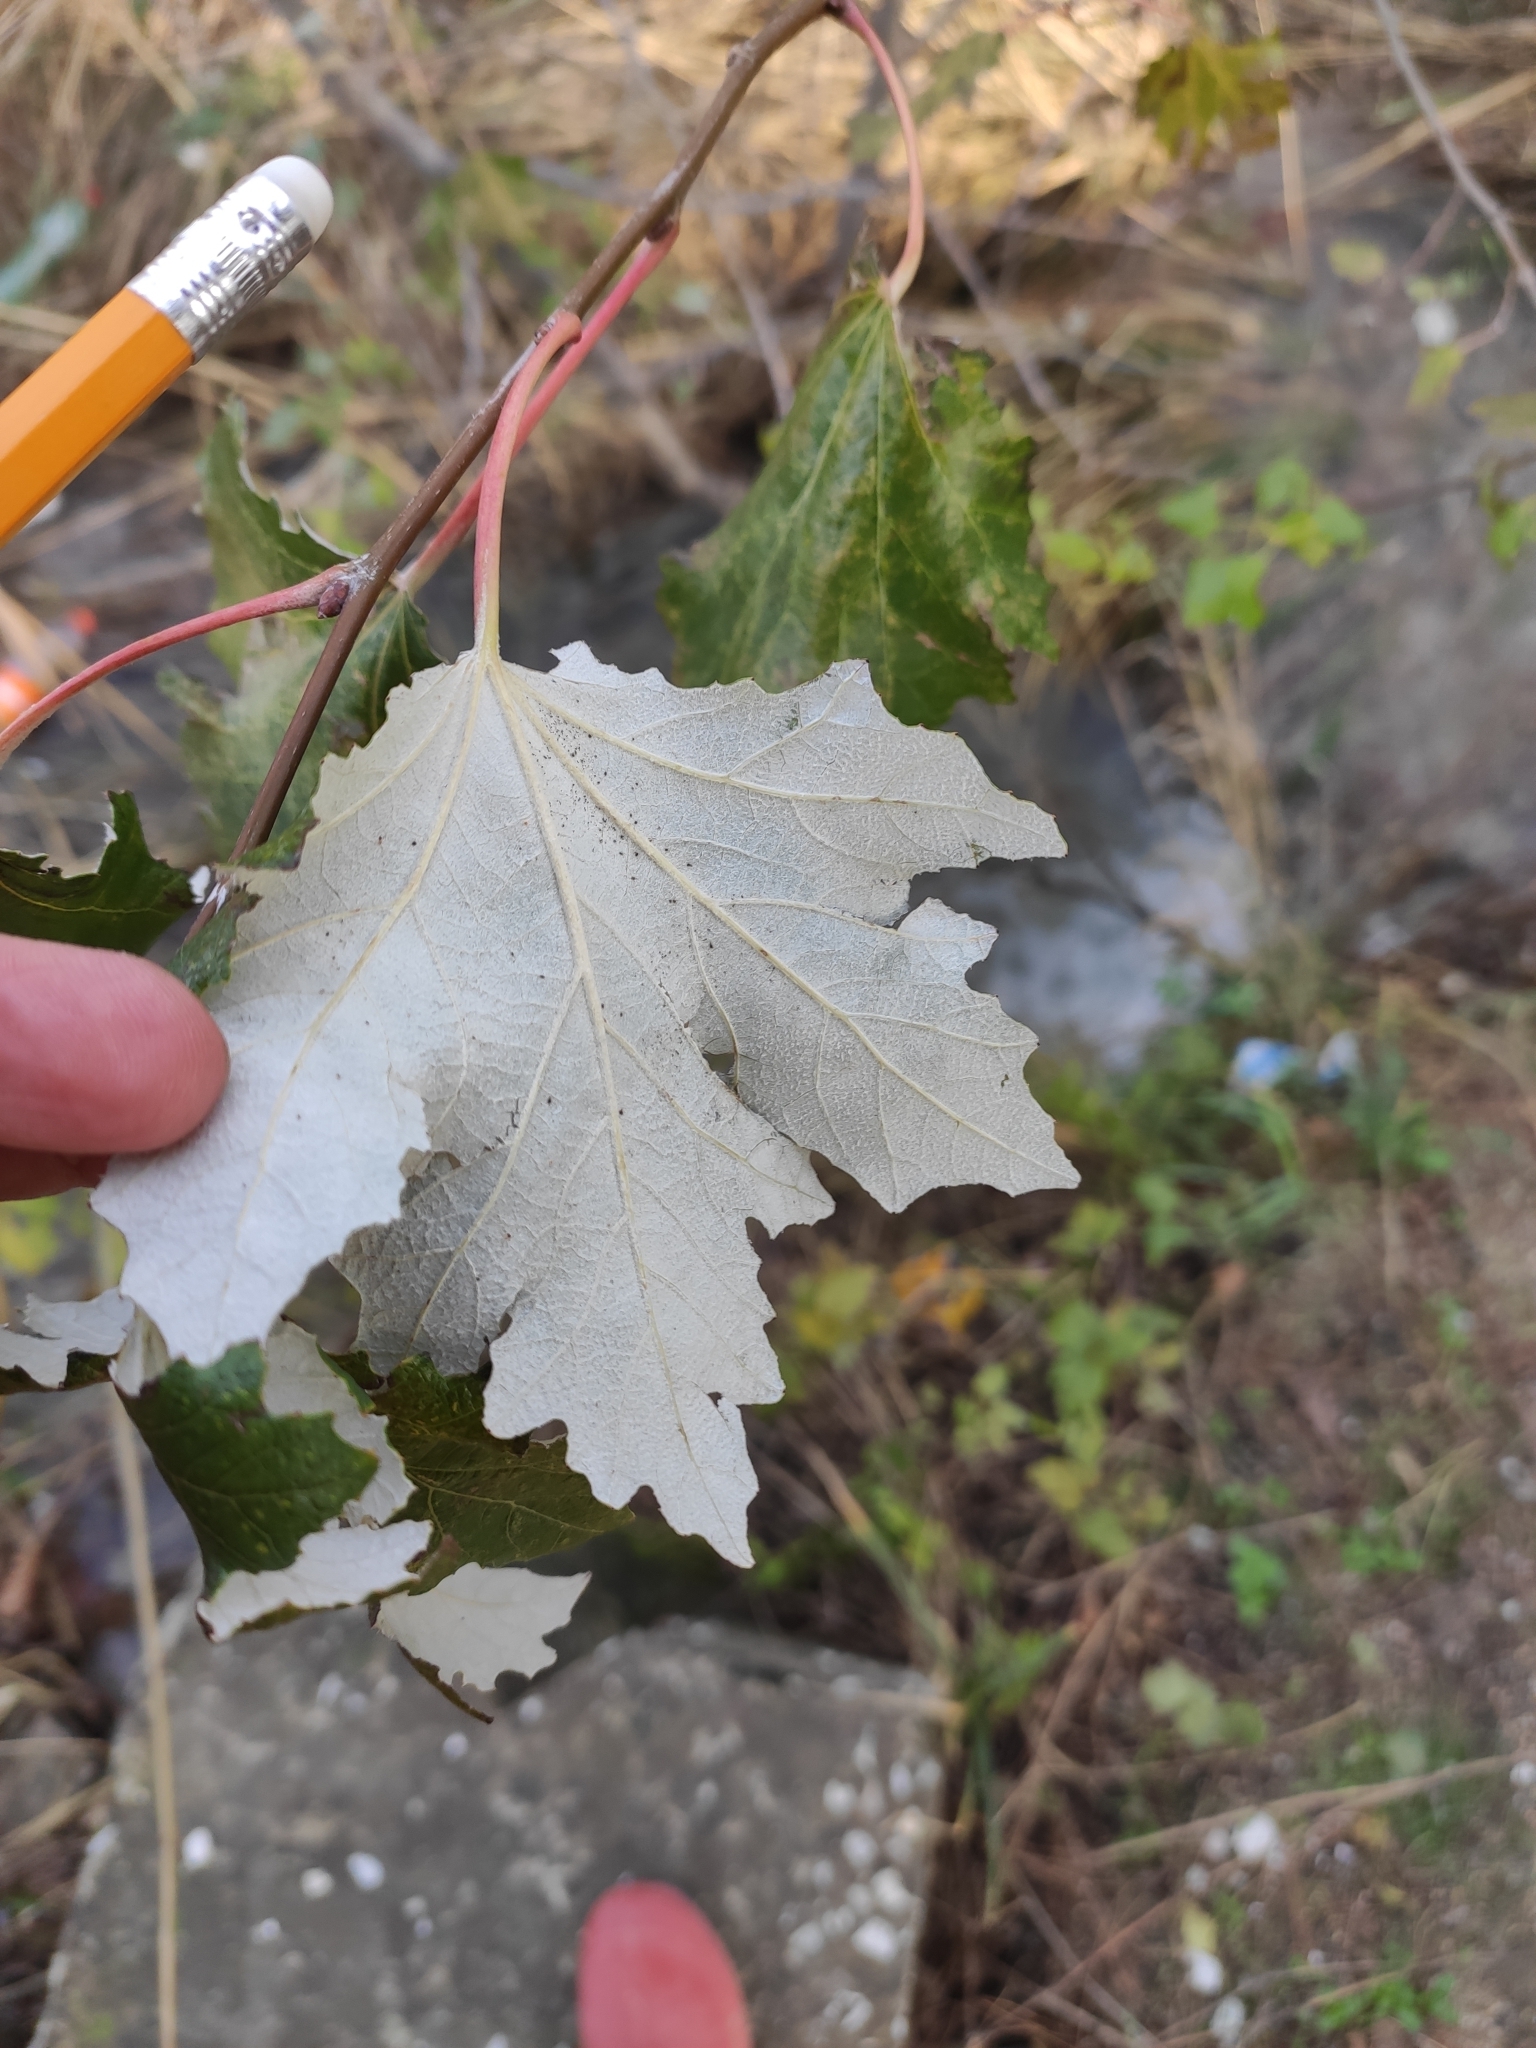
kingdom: Plantae
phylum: Tracheophyta
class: Magnoliopsida
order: Malpighiales
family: Salicaceae
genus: Populus
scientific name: Populus alba
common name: White poplar
